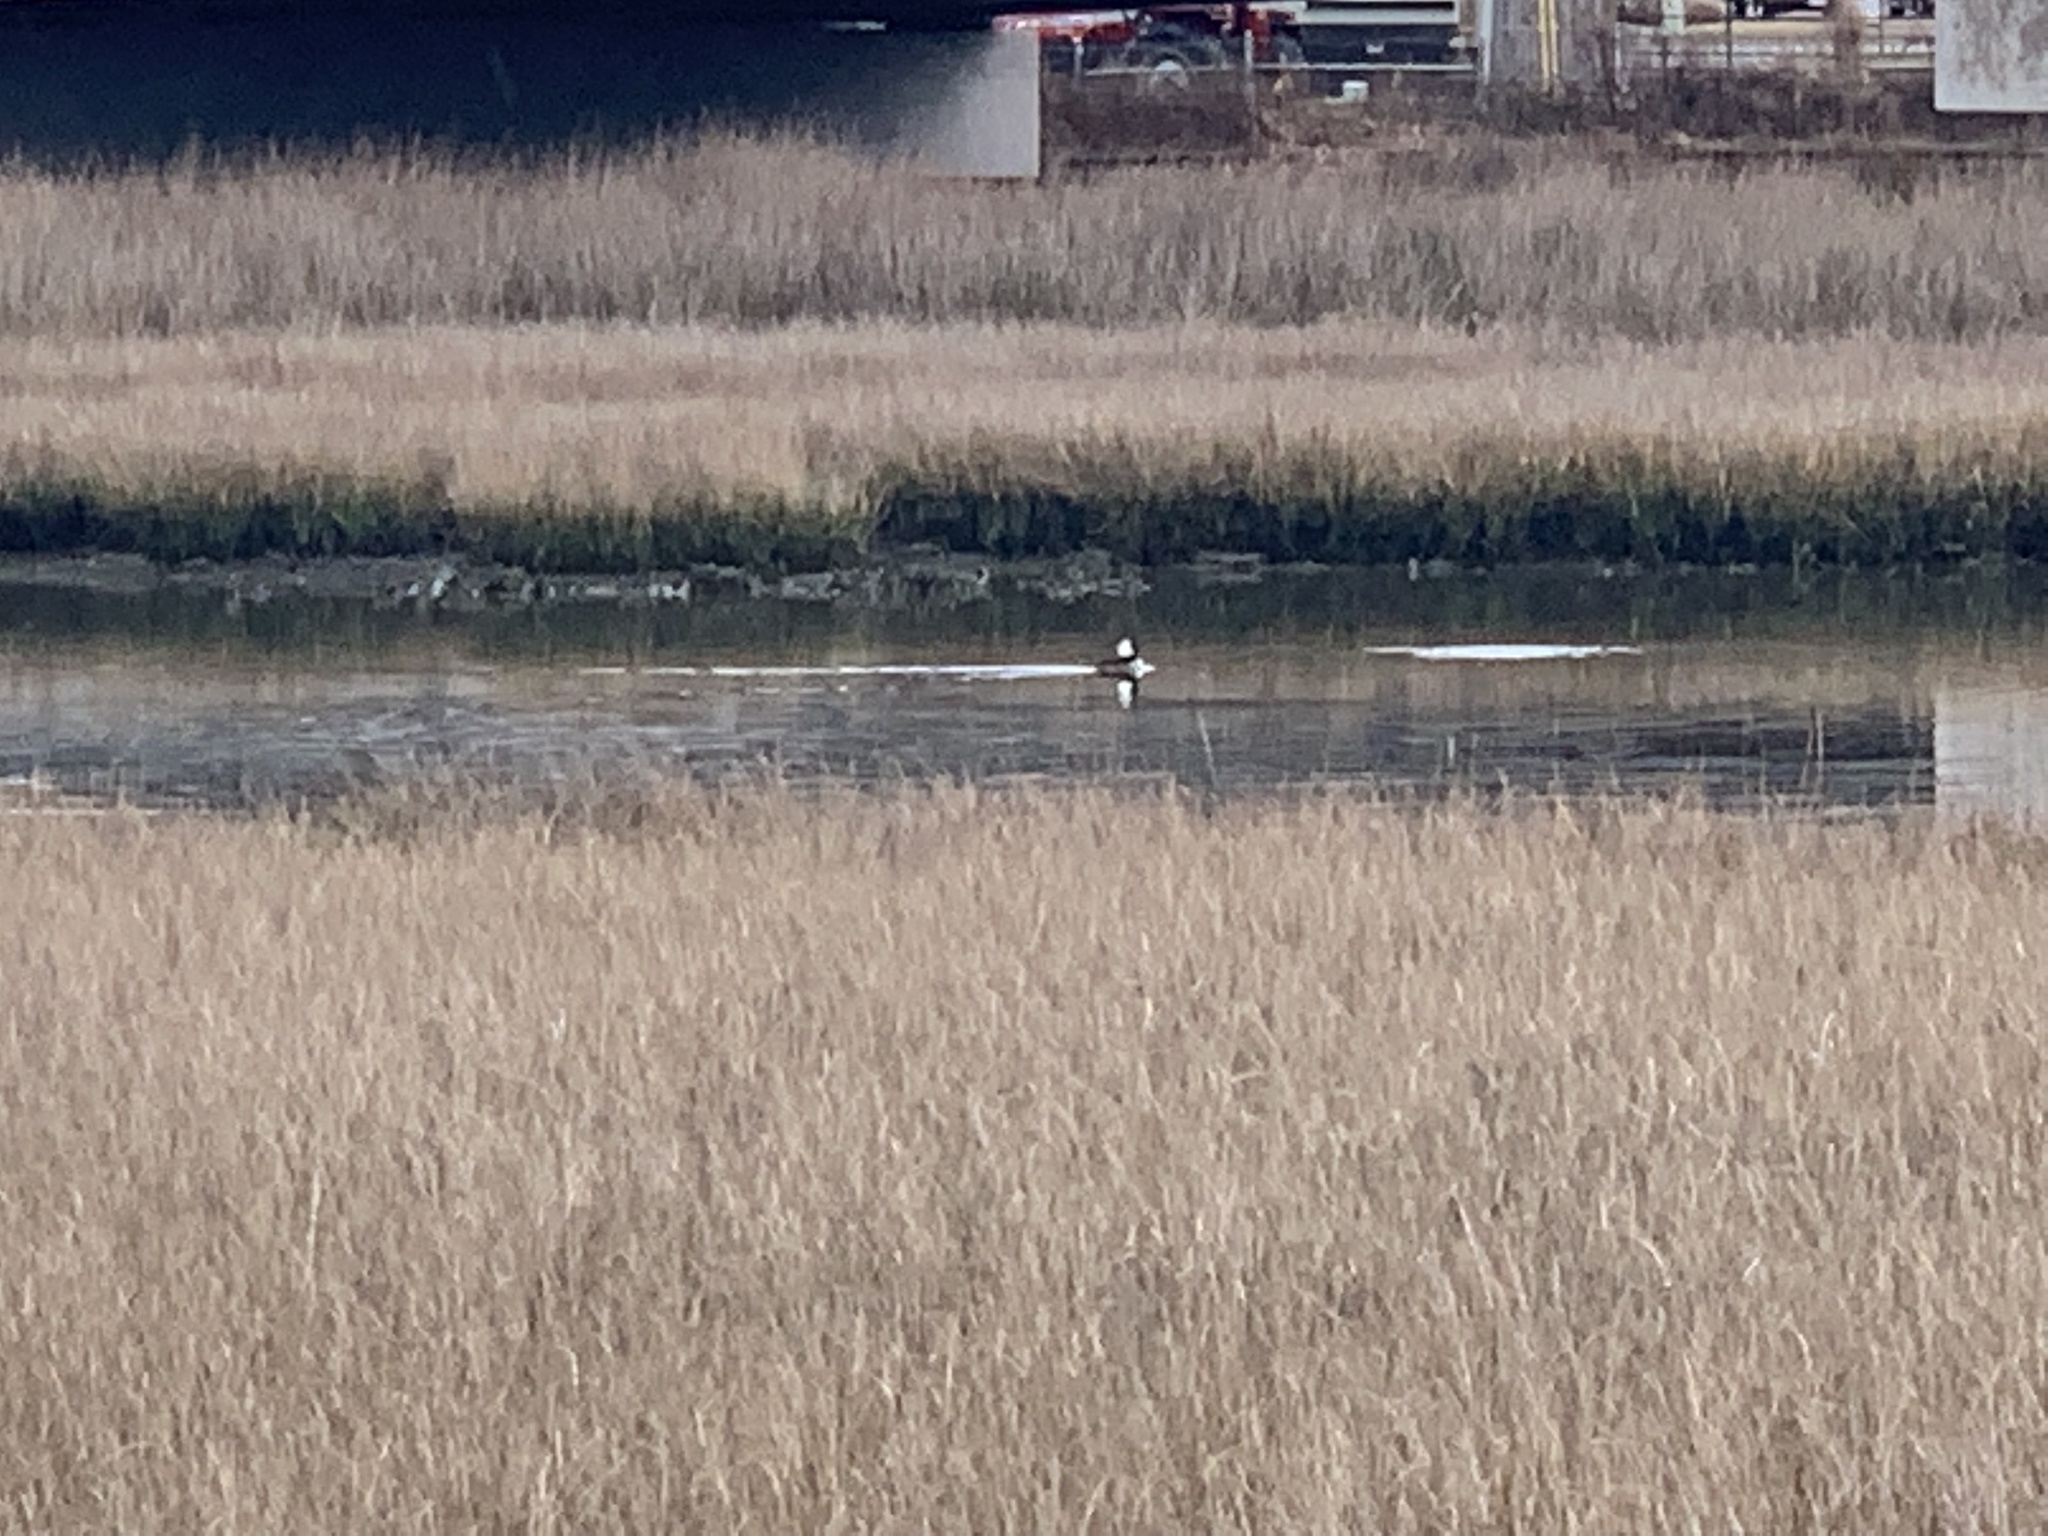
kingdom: Animalia
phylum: Chordata
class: Aves
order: Anseriformes
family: Anatidae
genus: Lophodytes
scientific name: Lophodytes cucullatus
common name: Hooded merganser
